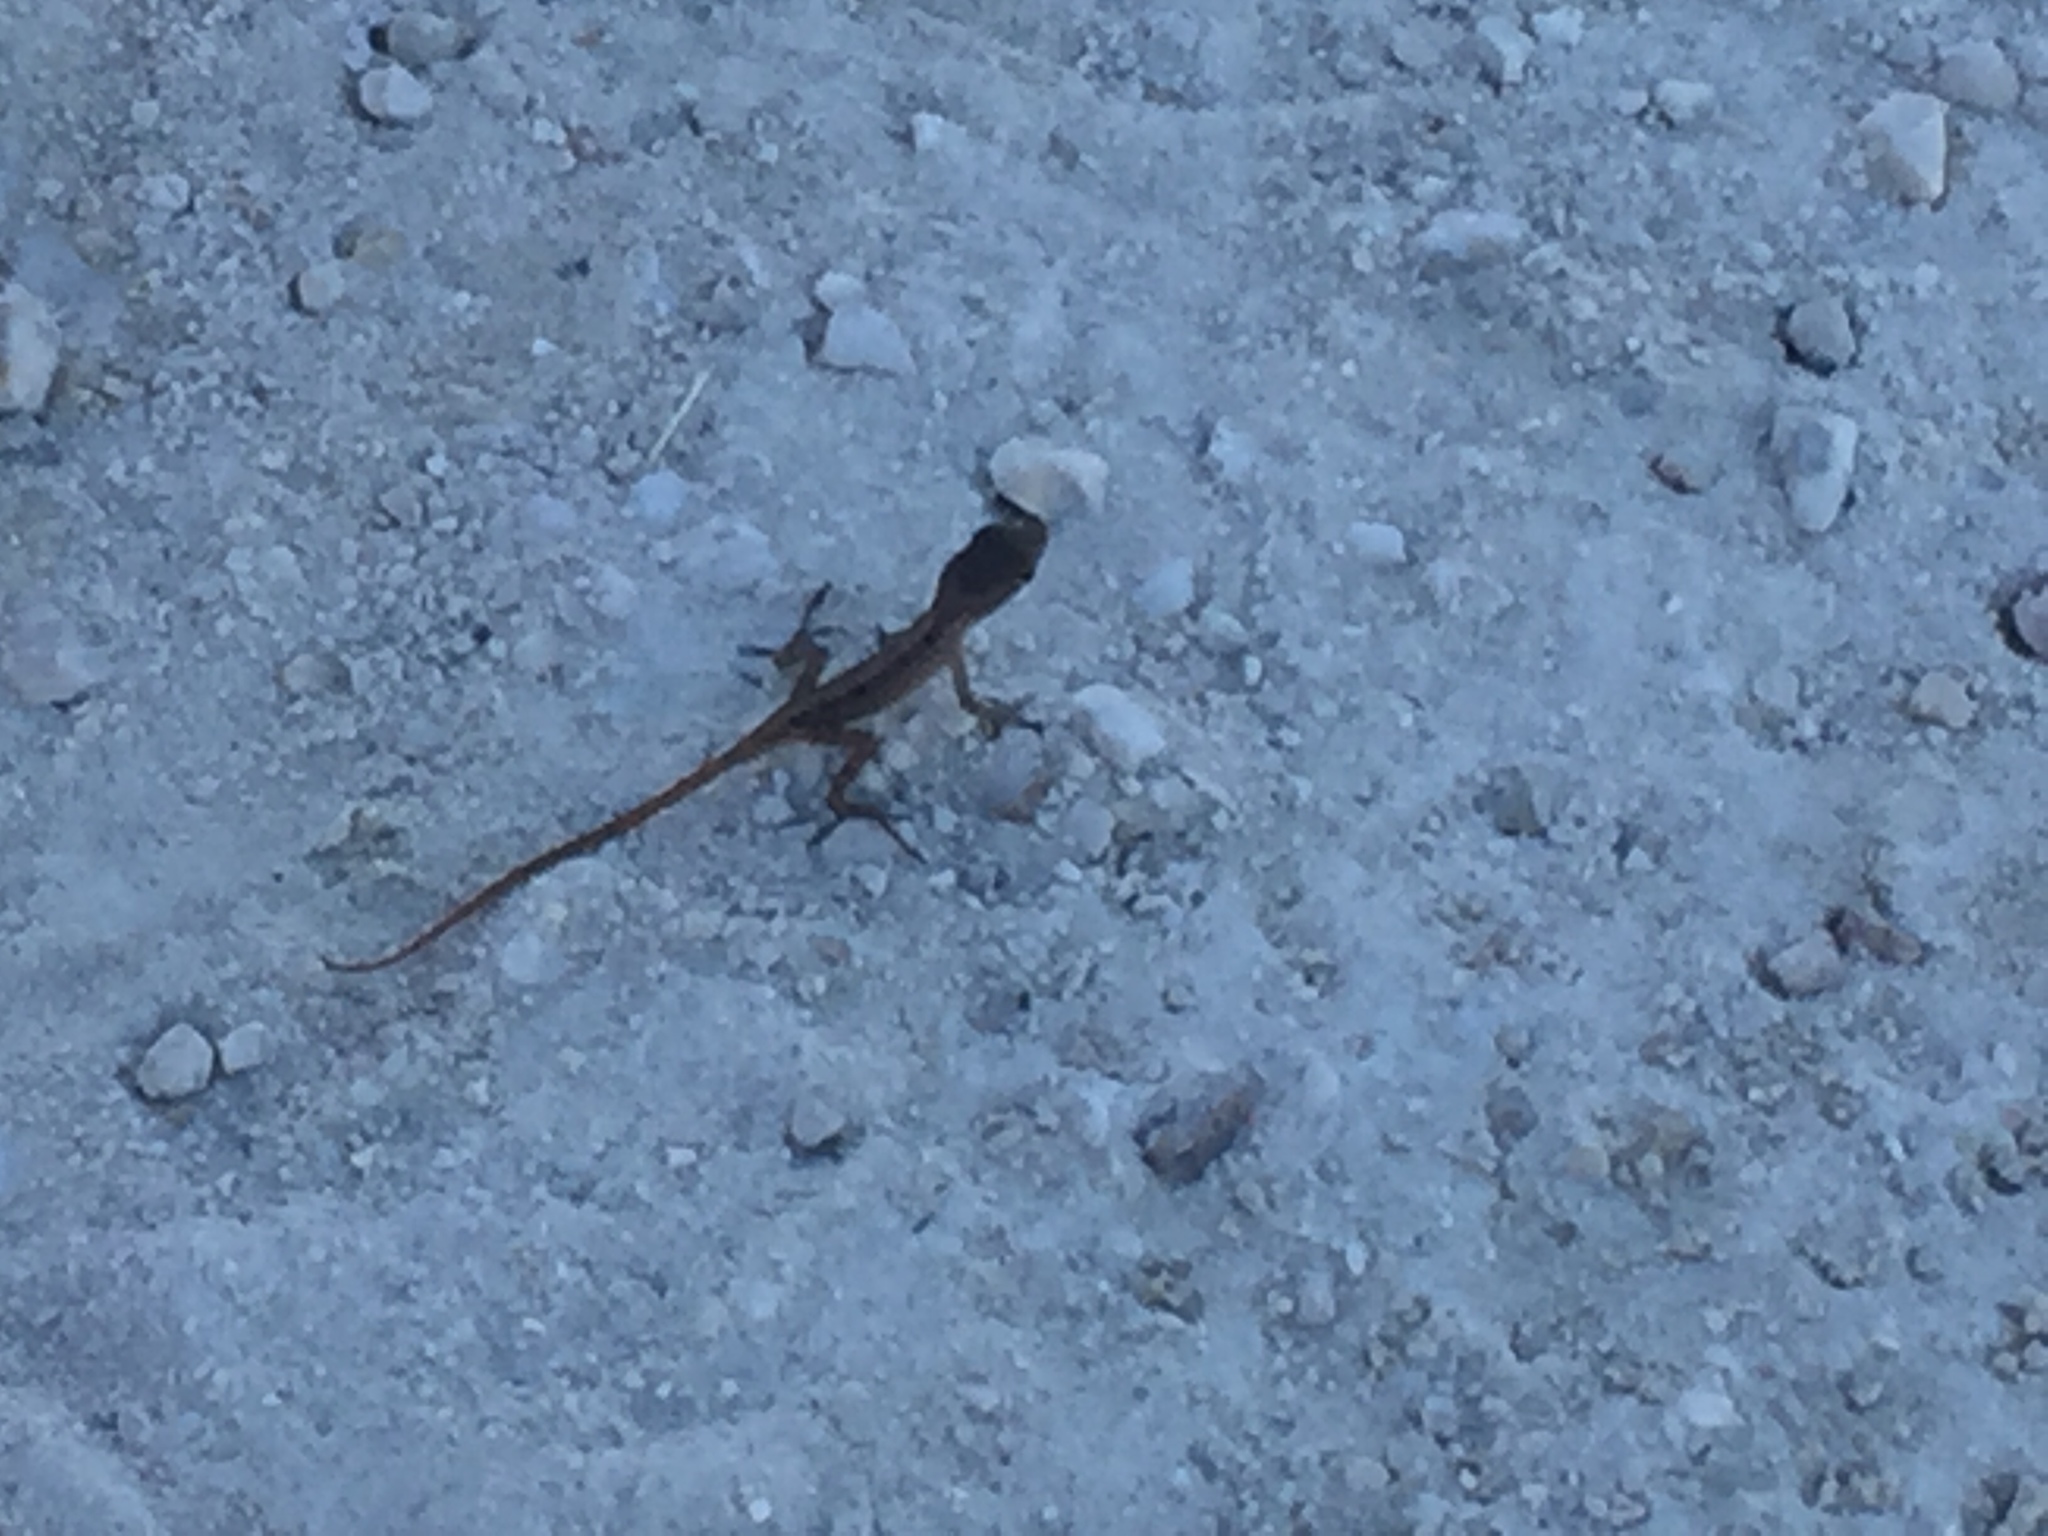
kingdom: Animalia
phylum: Chordata
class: Squamata
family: Dactyloidae
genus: Anolis
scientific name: Anolis sagrei
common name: Brown anole
